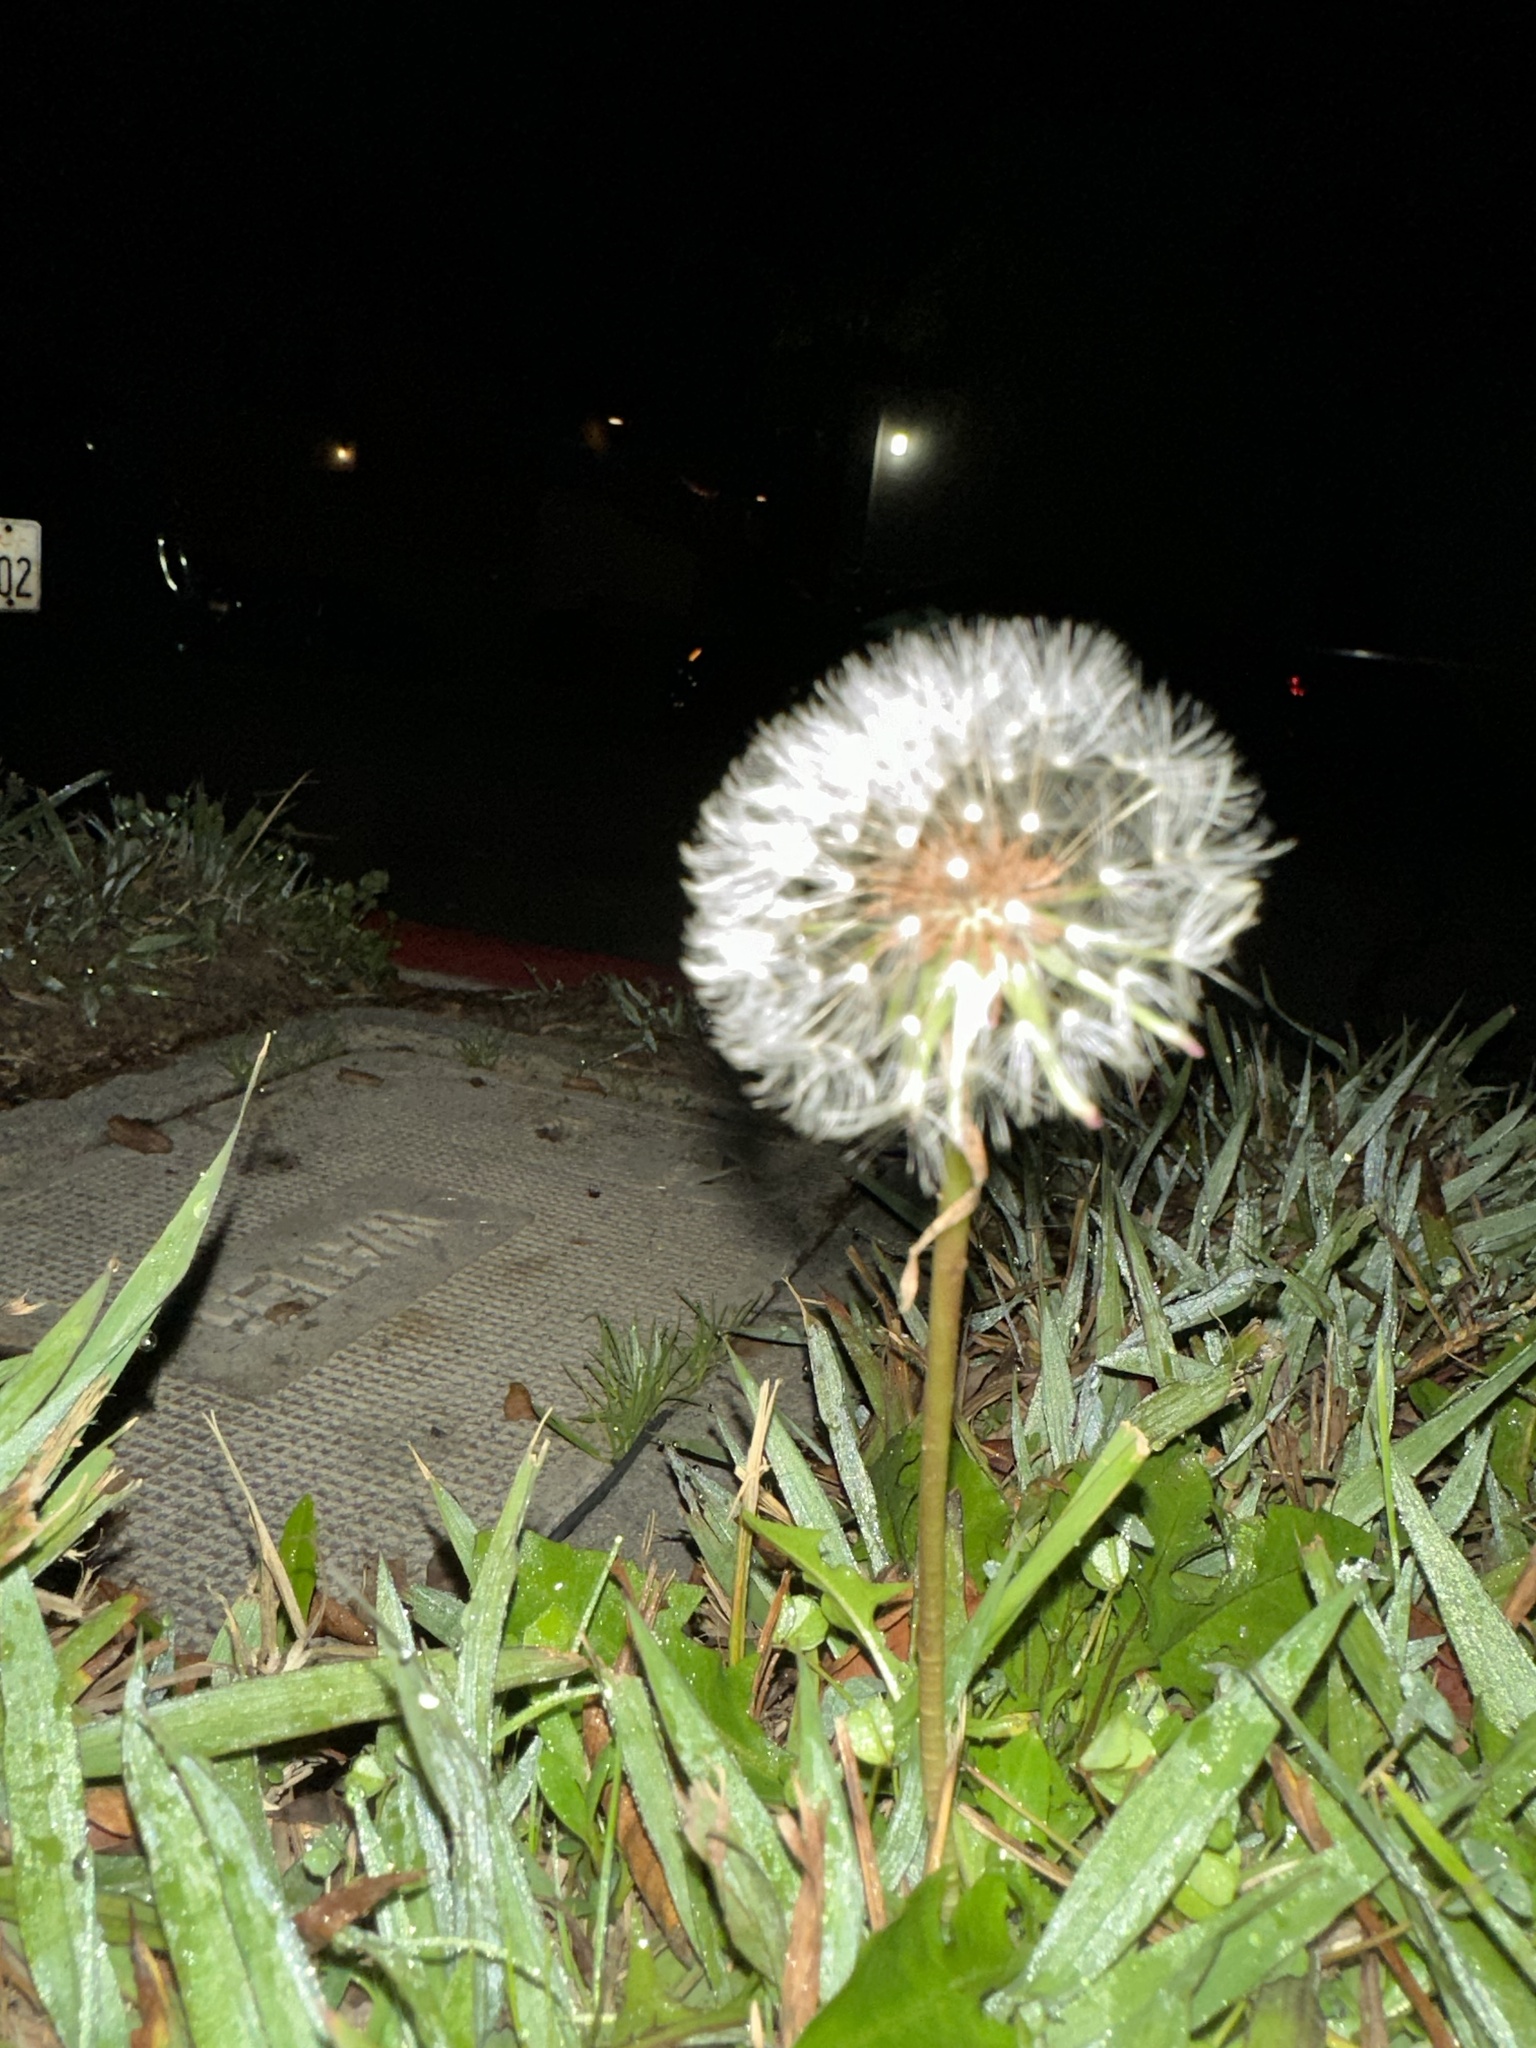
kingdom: Plantae
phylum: Tracheophyta
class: Magnoliopsida
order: Asterales
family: Asteraceae
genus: Taraxacum
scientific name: Taraxacum
